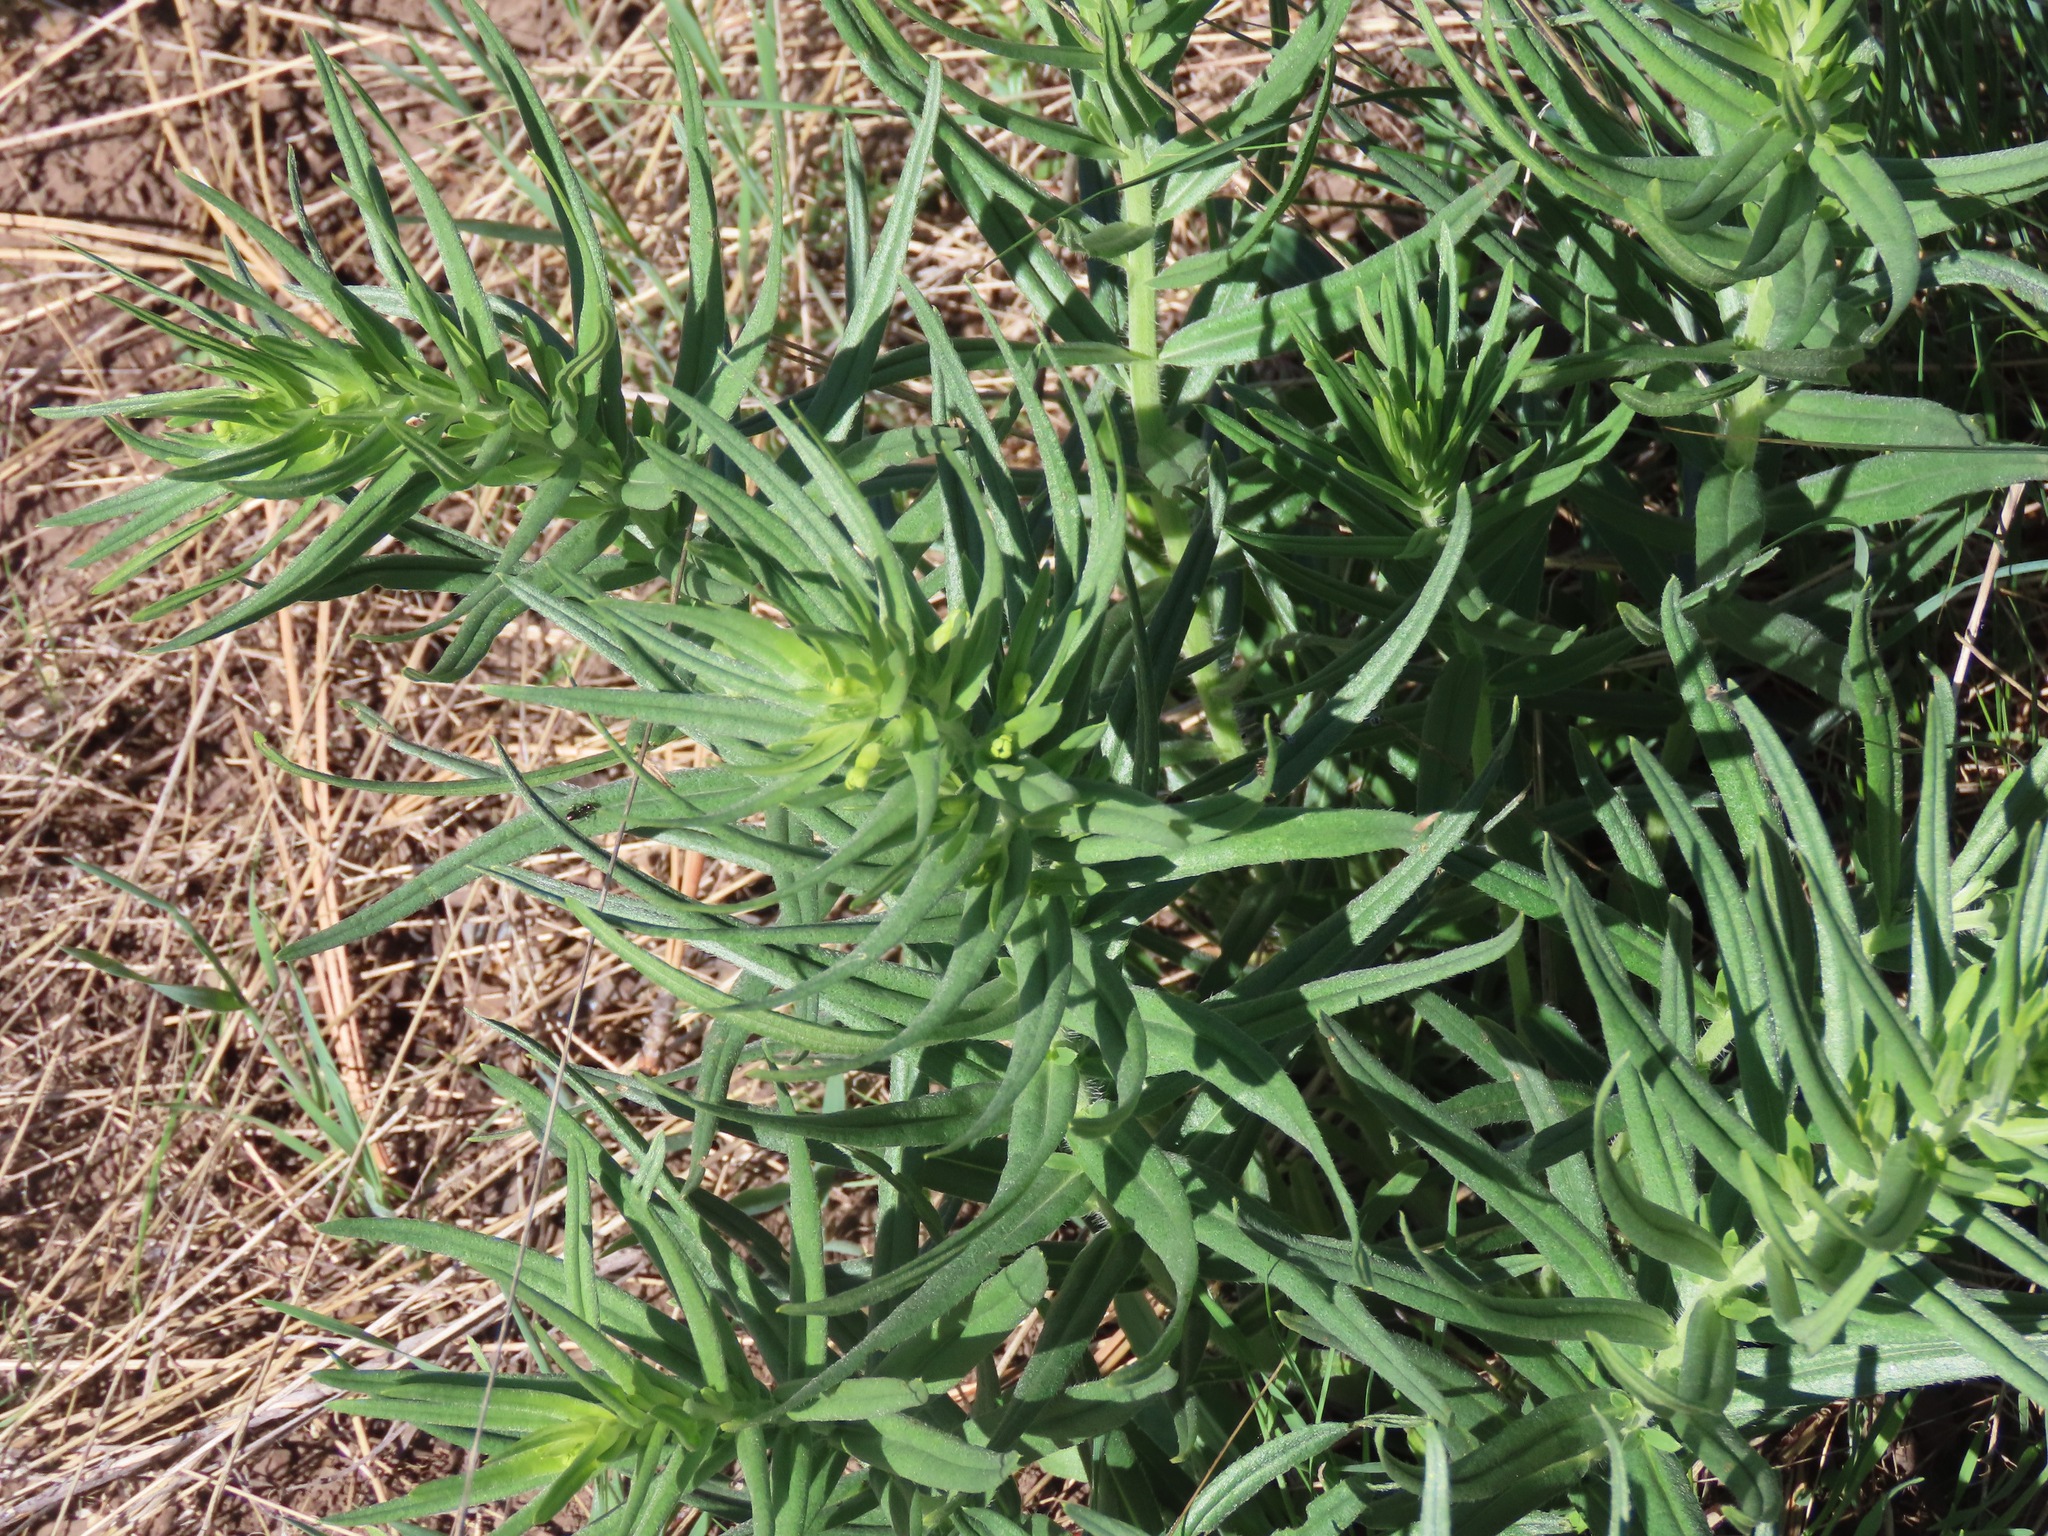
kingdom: Plantae
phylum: Tracheophyta
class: Magnoliopsida
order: Boraginales
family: Boraginaceae
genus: Lithospermum
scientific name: Lithospermum ruderale
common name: Western gromwell
